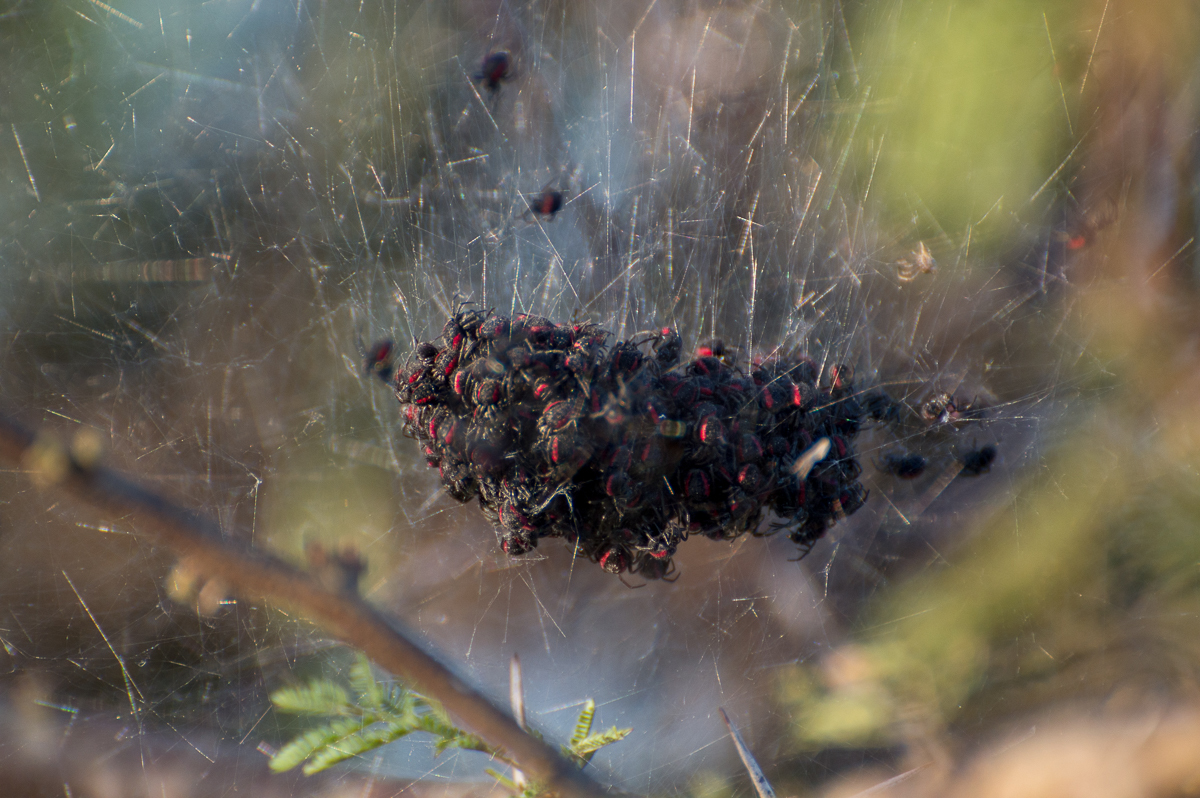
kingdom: Animalia
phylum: Arthropoda
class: Arachnida
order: Araneae
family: Araneidae
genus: Parawixia
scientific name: Parawixia bistriata
